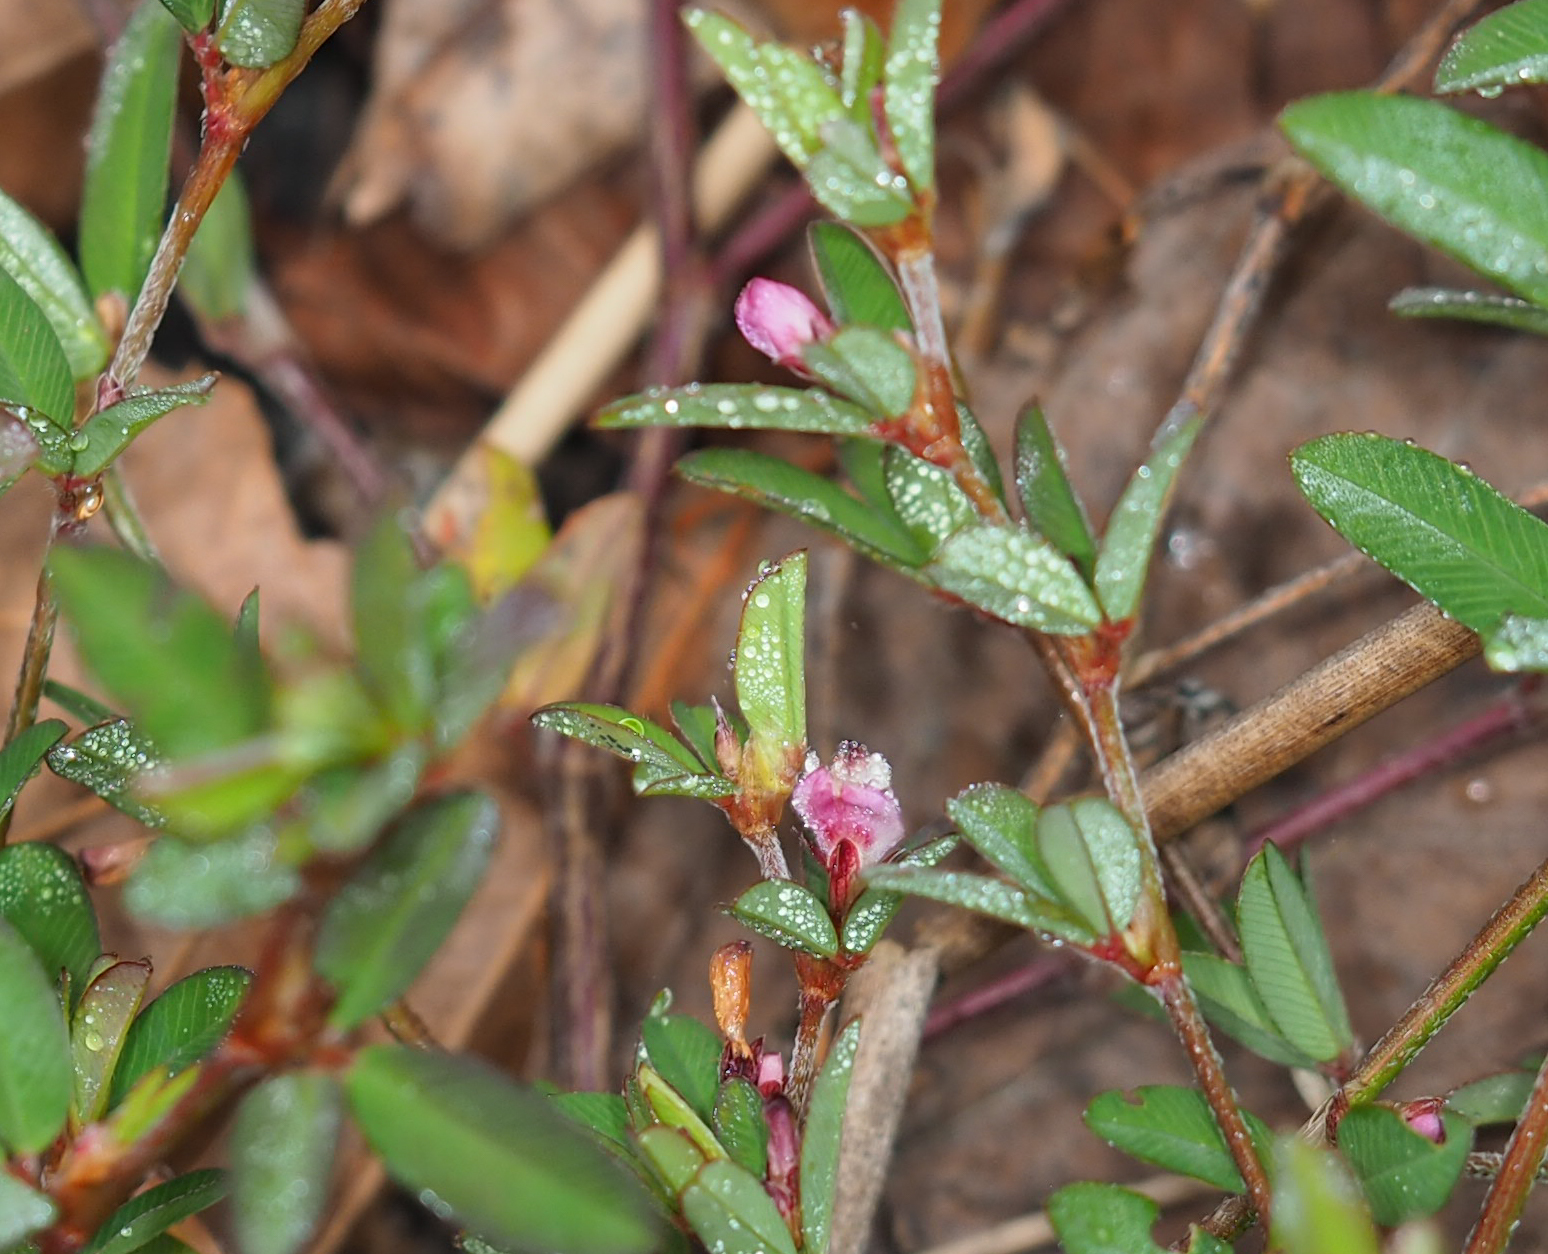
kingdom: Plantae
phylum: Tracheophyta
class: Magnoliopsida
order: Fabales
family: Fabaceae
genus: Kummerowia
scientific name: Kummerowia striata
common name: Japanese clover
